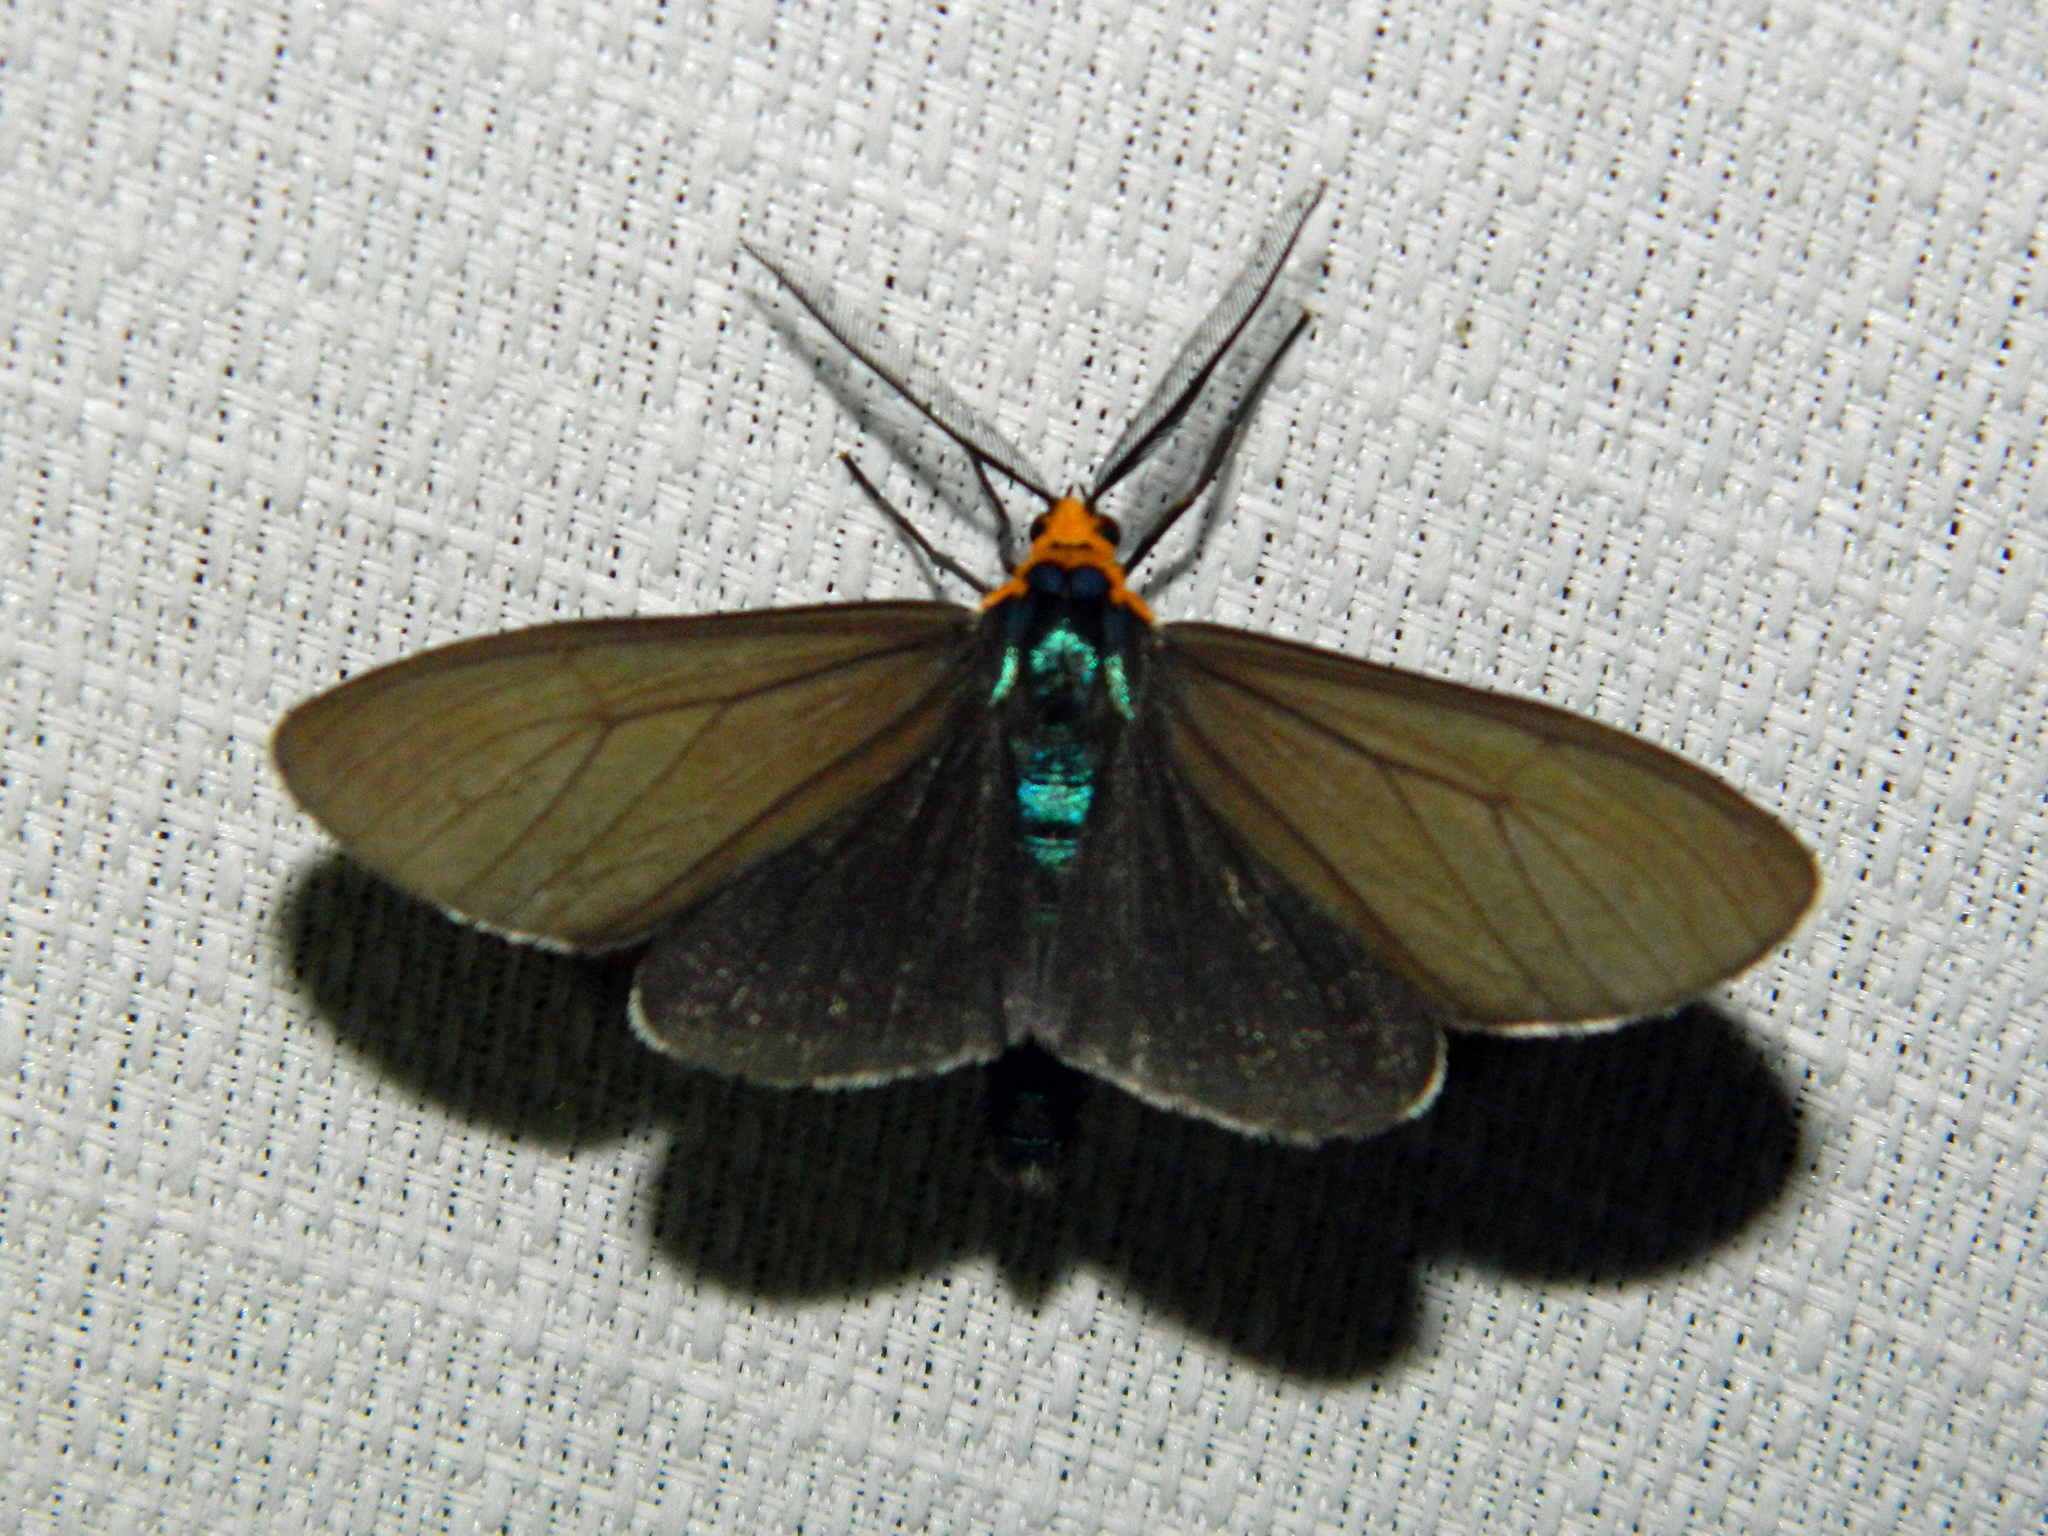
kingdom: Animalia
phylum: Arthropoda
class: Insecta
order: Lepidoptera
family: Erebidae
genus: Ctenucha
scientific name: Ctenucha virginica
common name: Virginia ctenucha moth
